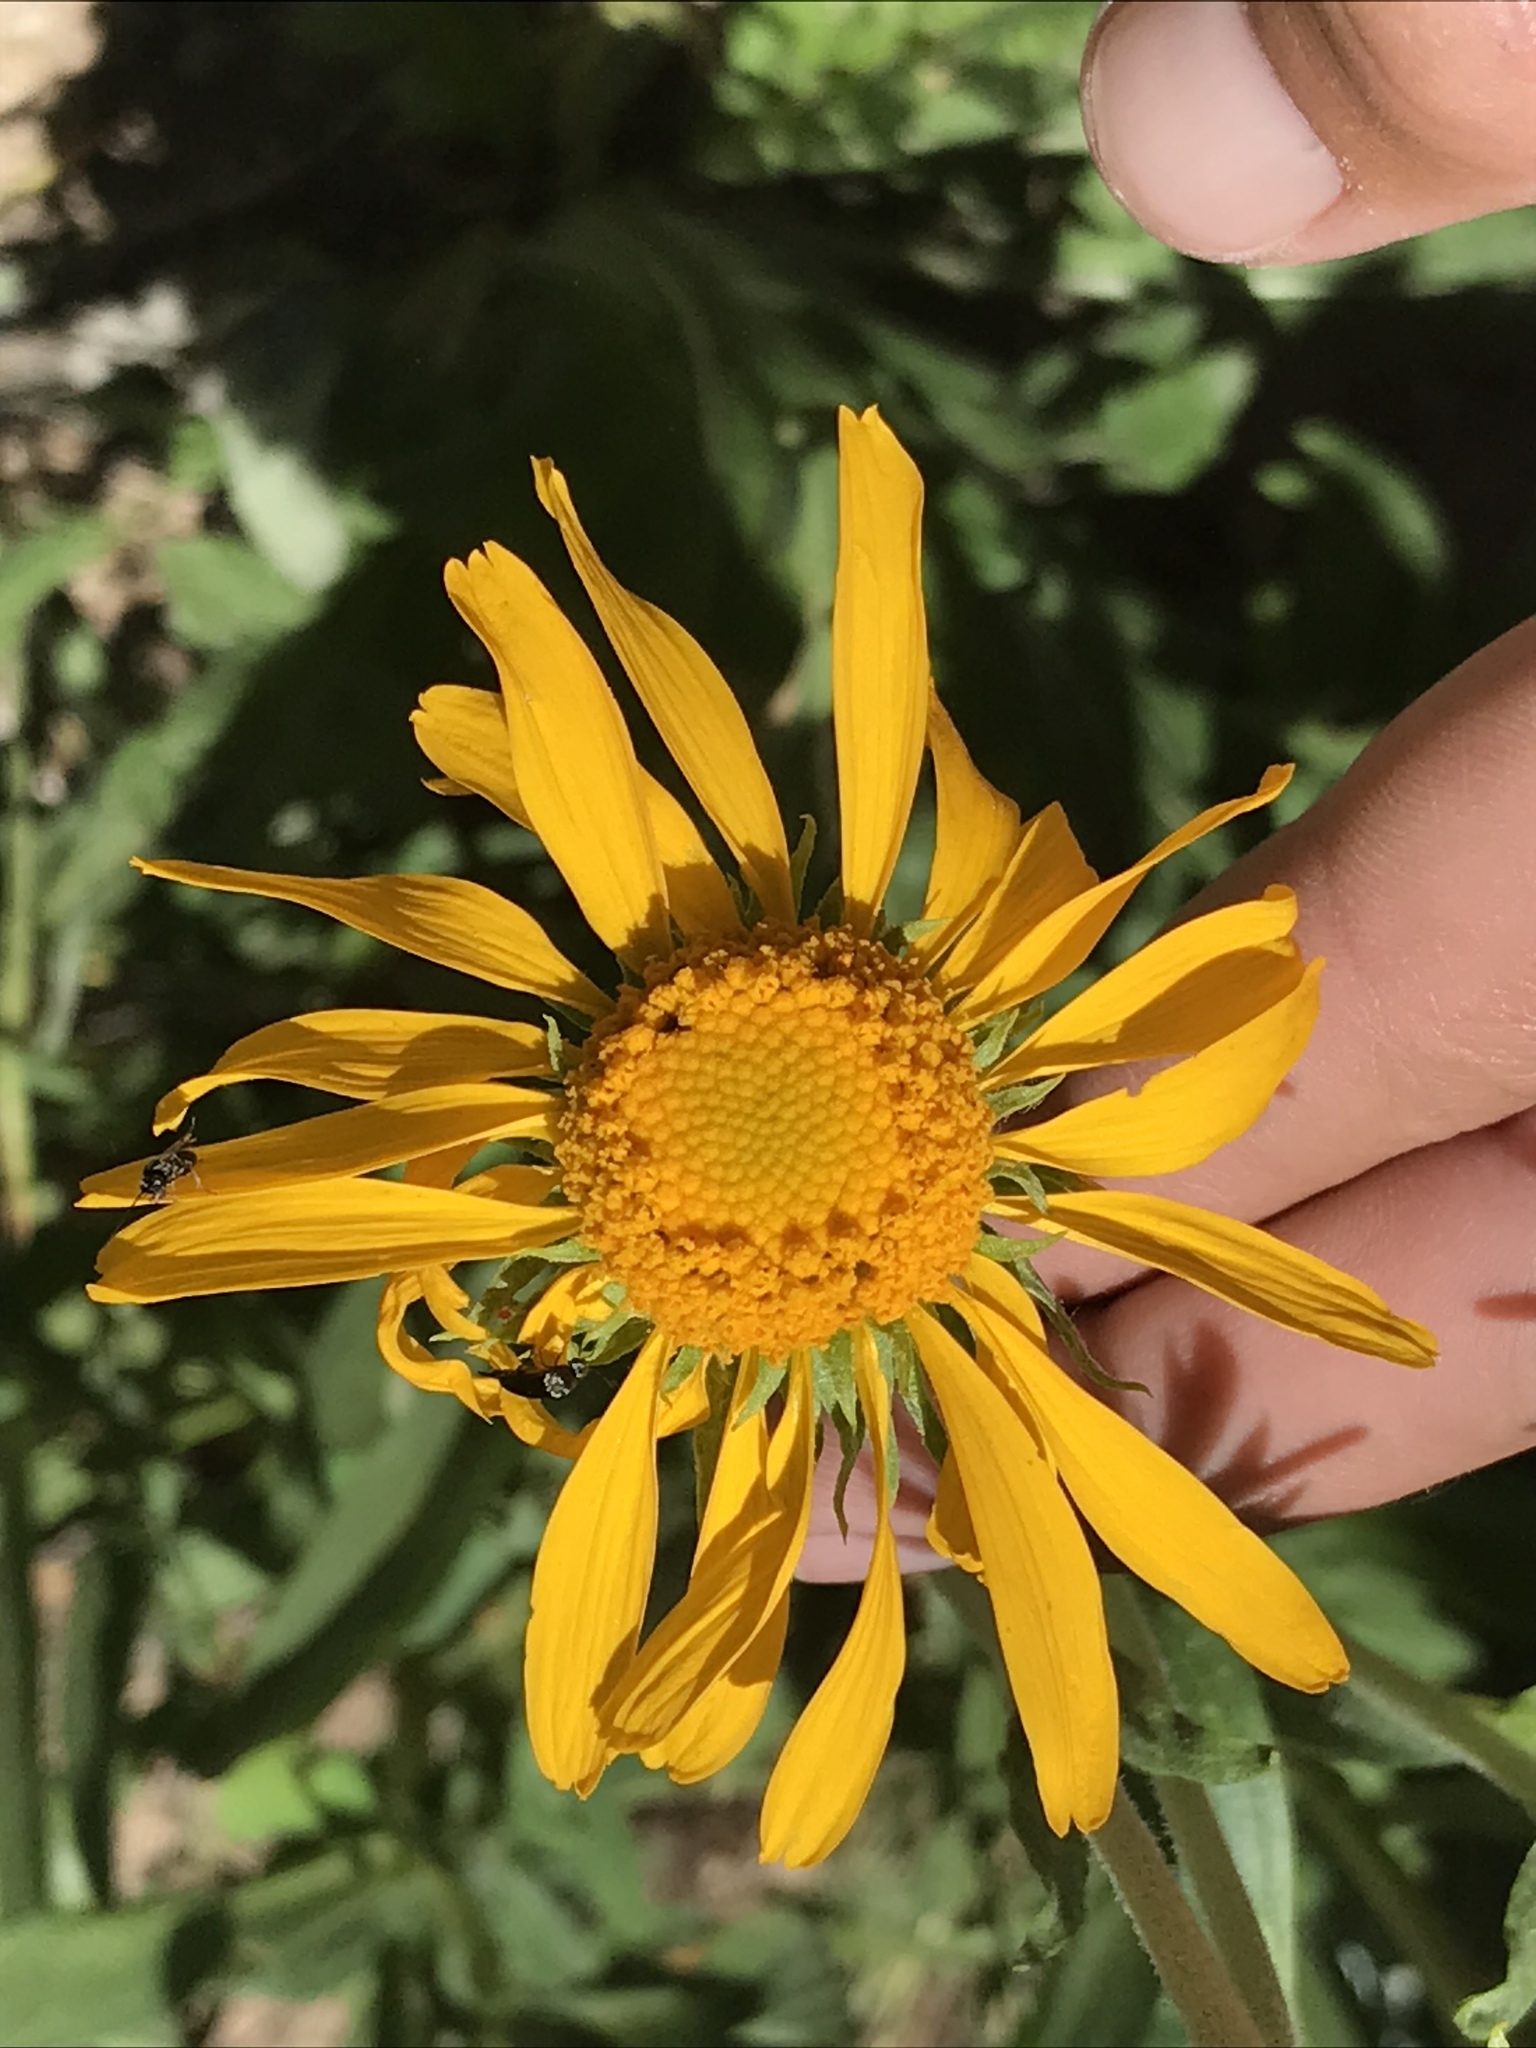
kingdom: Plantae
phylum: Tracheophyta
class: Magnoliopsida
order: Asterales
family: Asteraceae
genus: Hymenoxys
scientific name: Hymenoxys hoopesii
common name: Orange-sneezeweed
